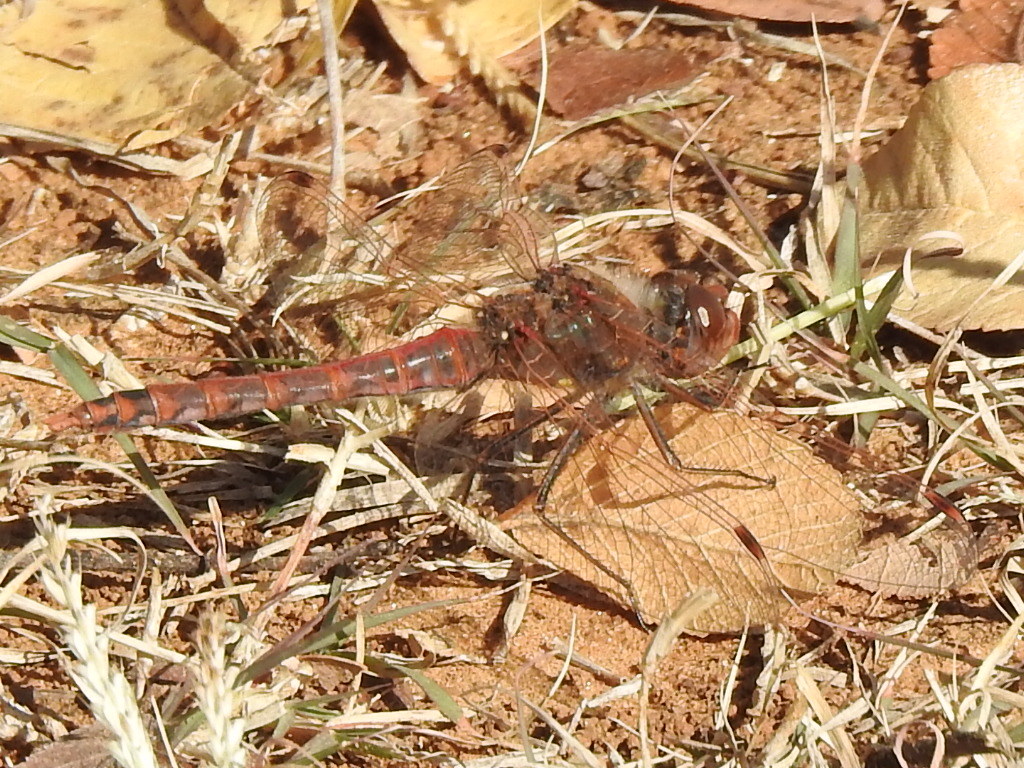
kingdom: Animalia
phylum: Arthropoda
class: Insecta
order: Odonata
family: Libellulidae
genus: Sympetrum
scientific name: Sympetrum corruptum
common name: Variegated meadowhawk
